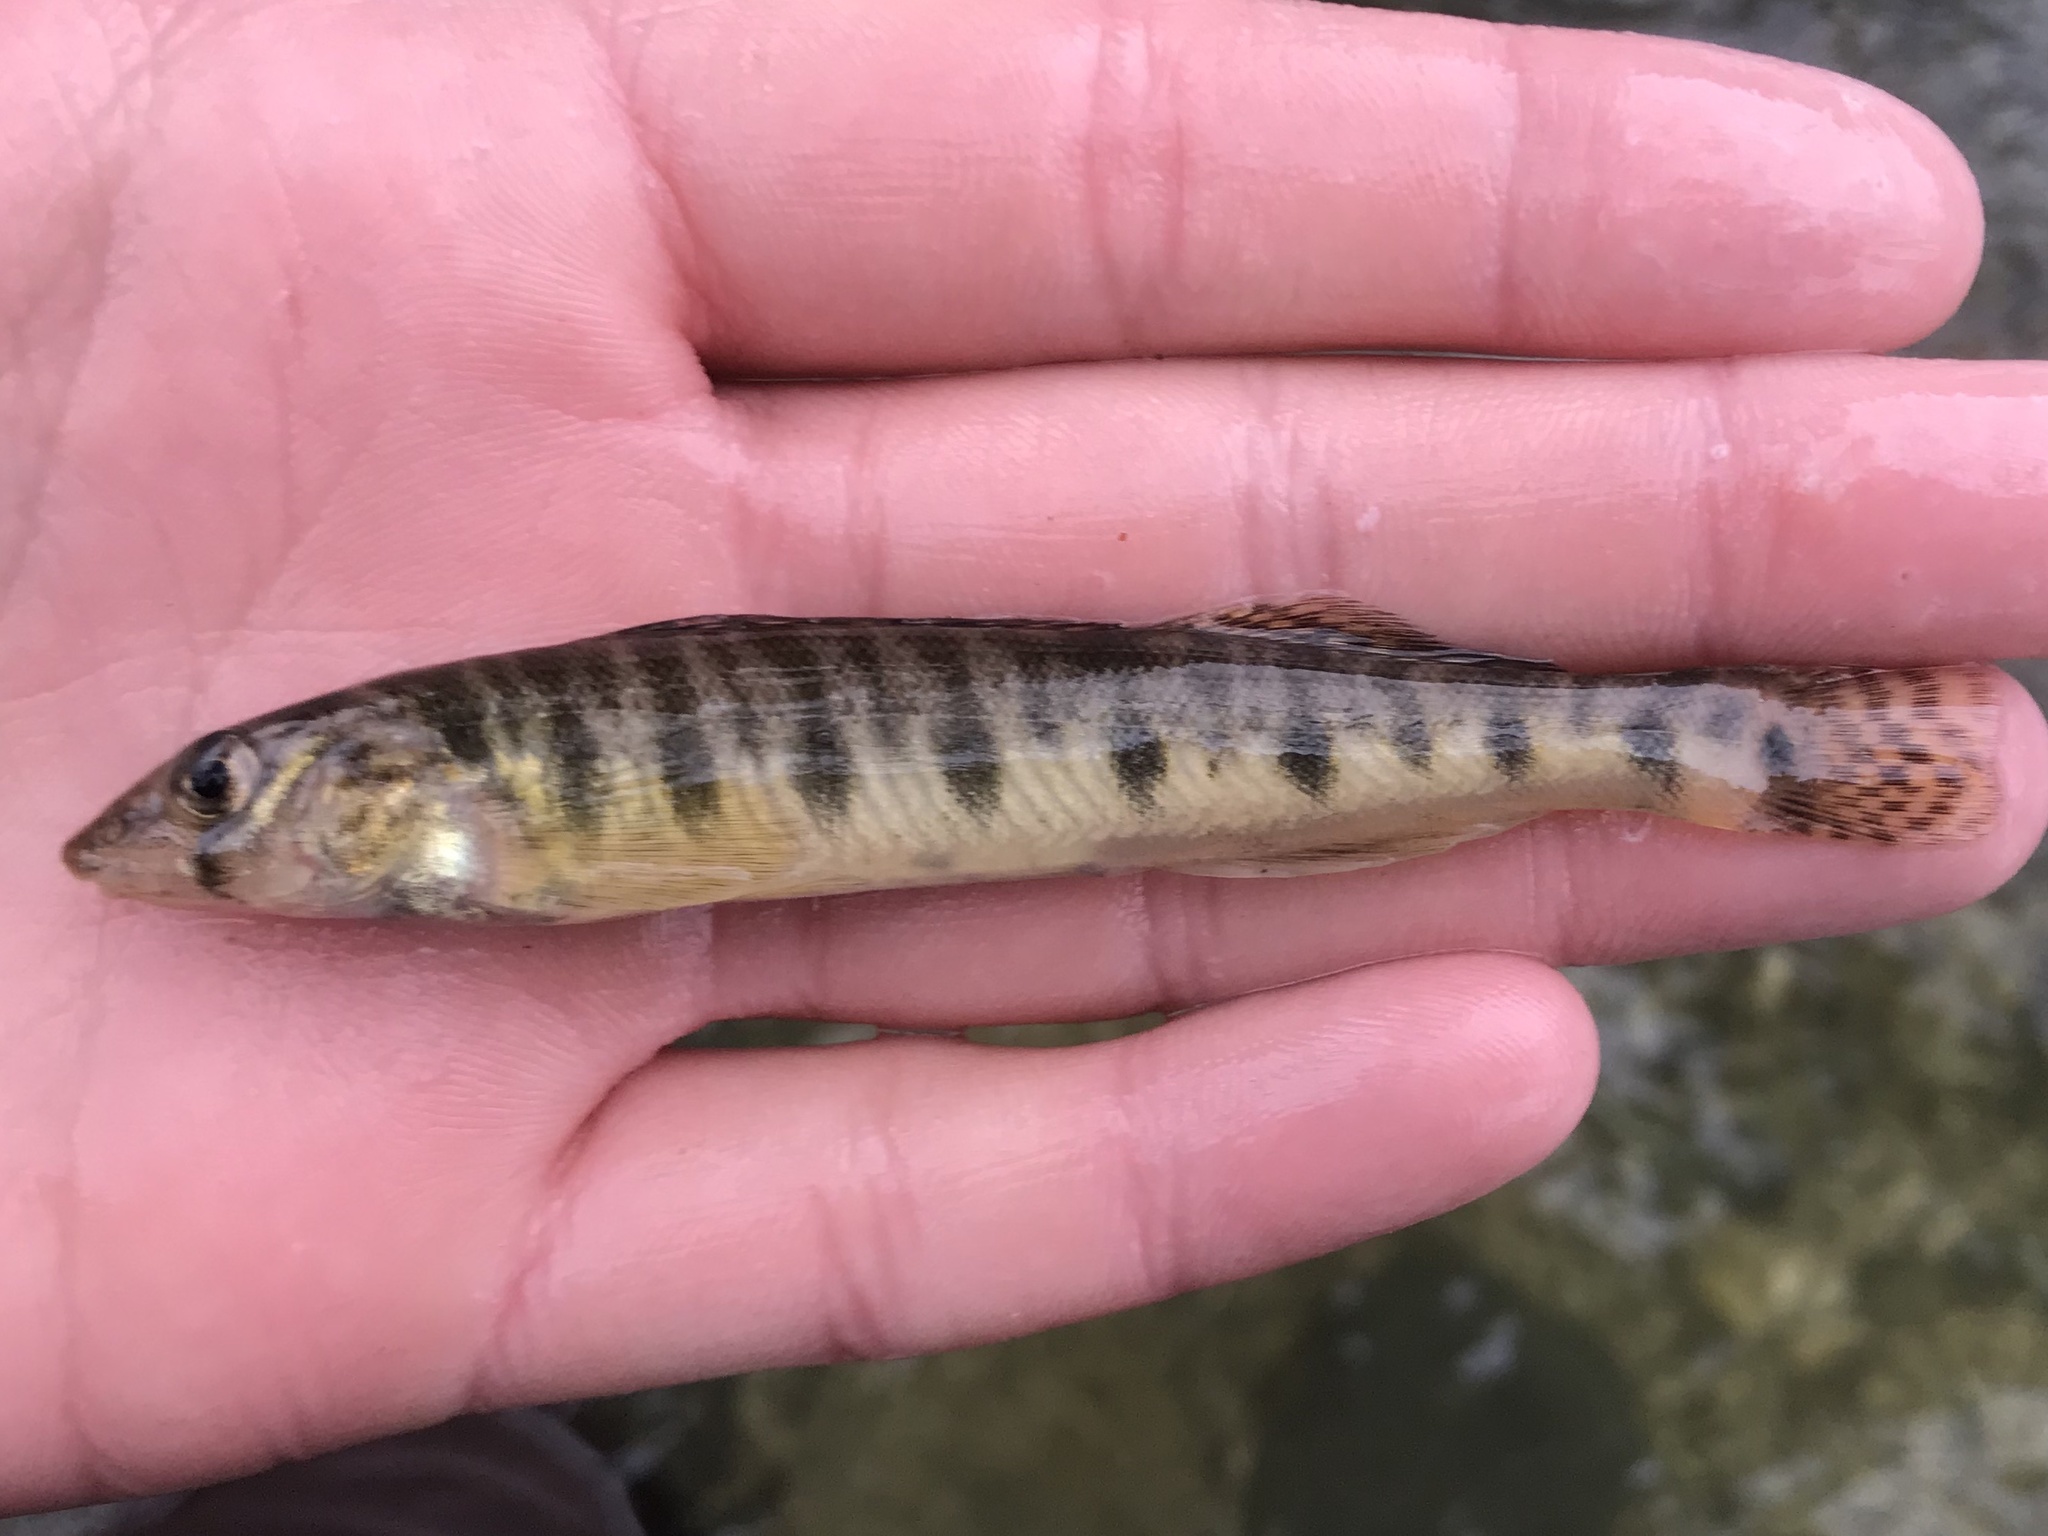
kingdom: Animalia
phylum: Chordata
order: Perciformes
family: Percidae
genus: Percina
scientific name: Percina carbonaria
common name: Texas logperch
